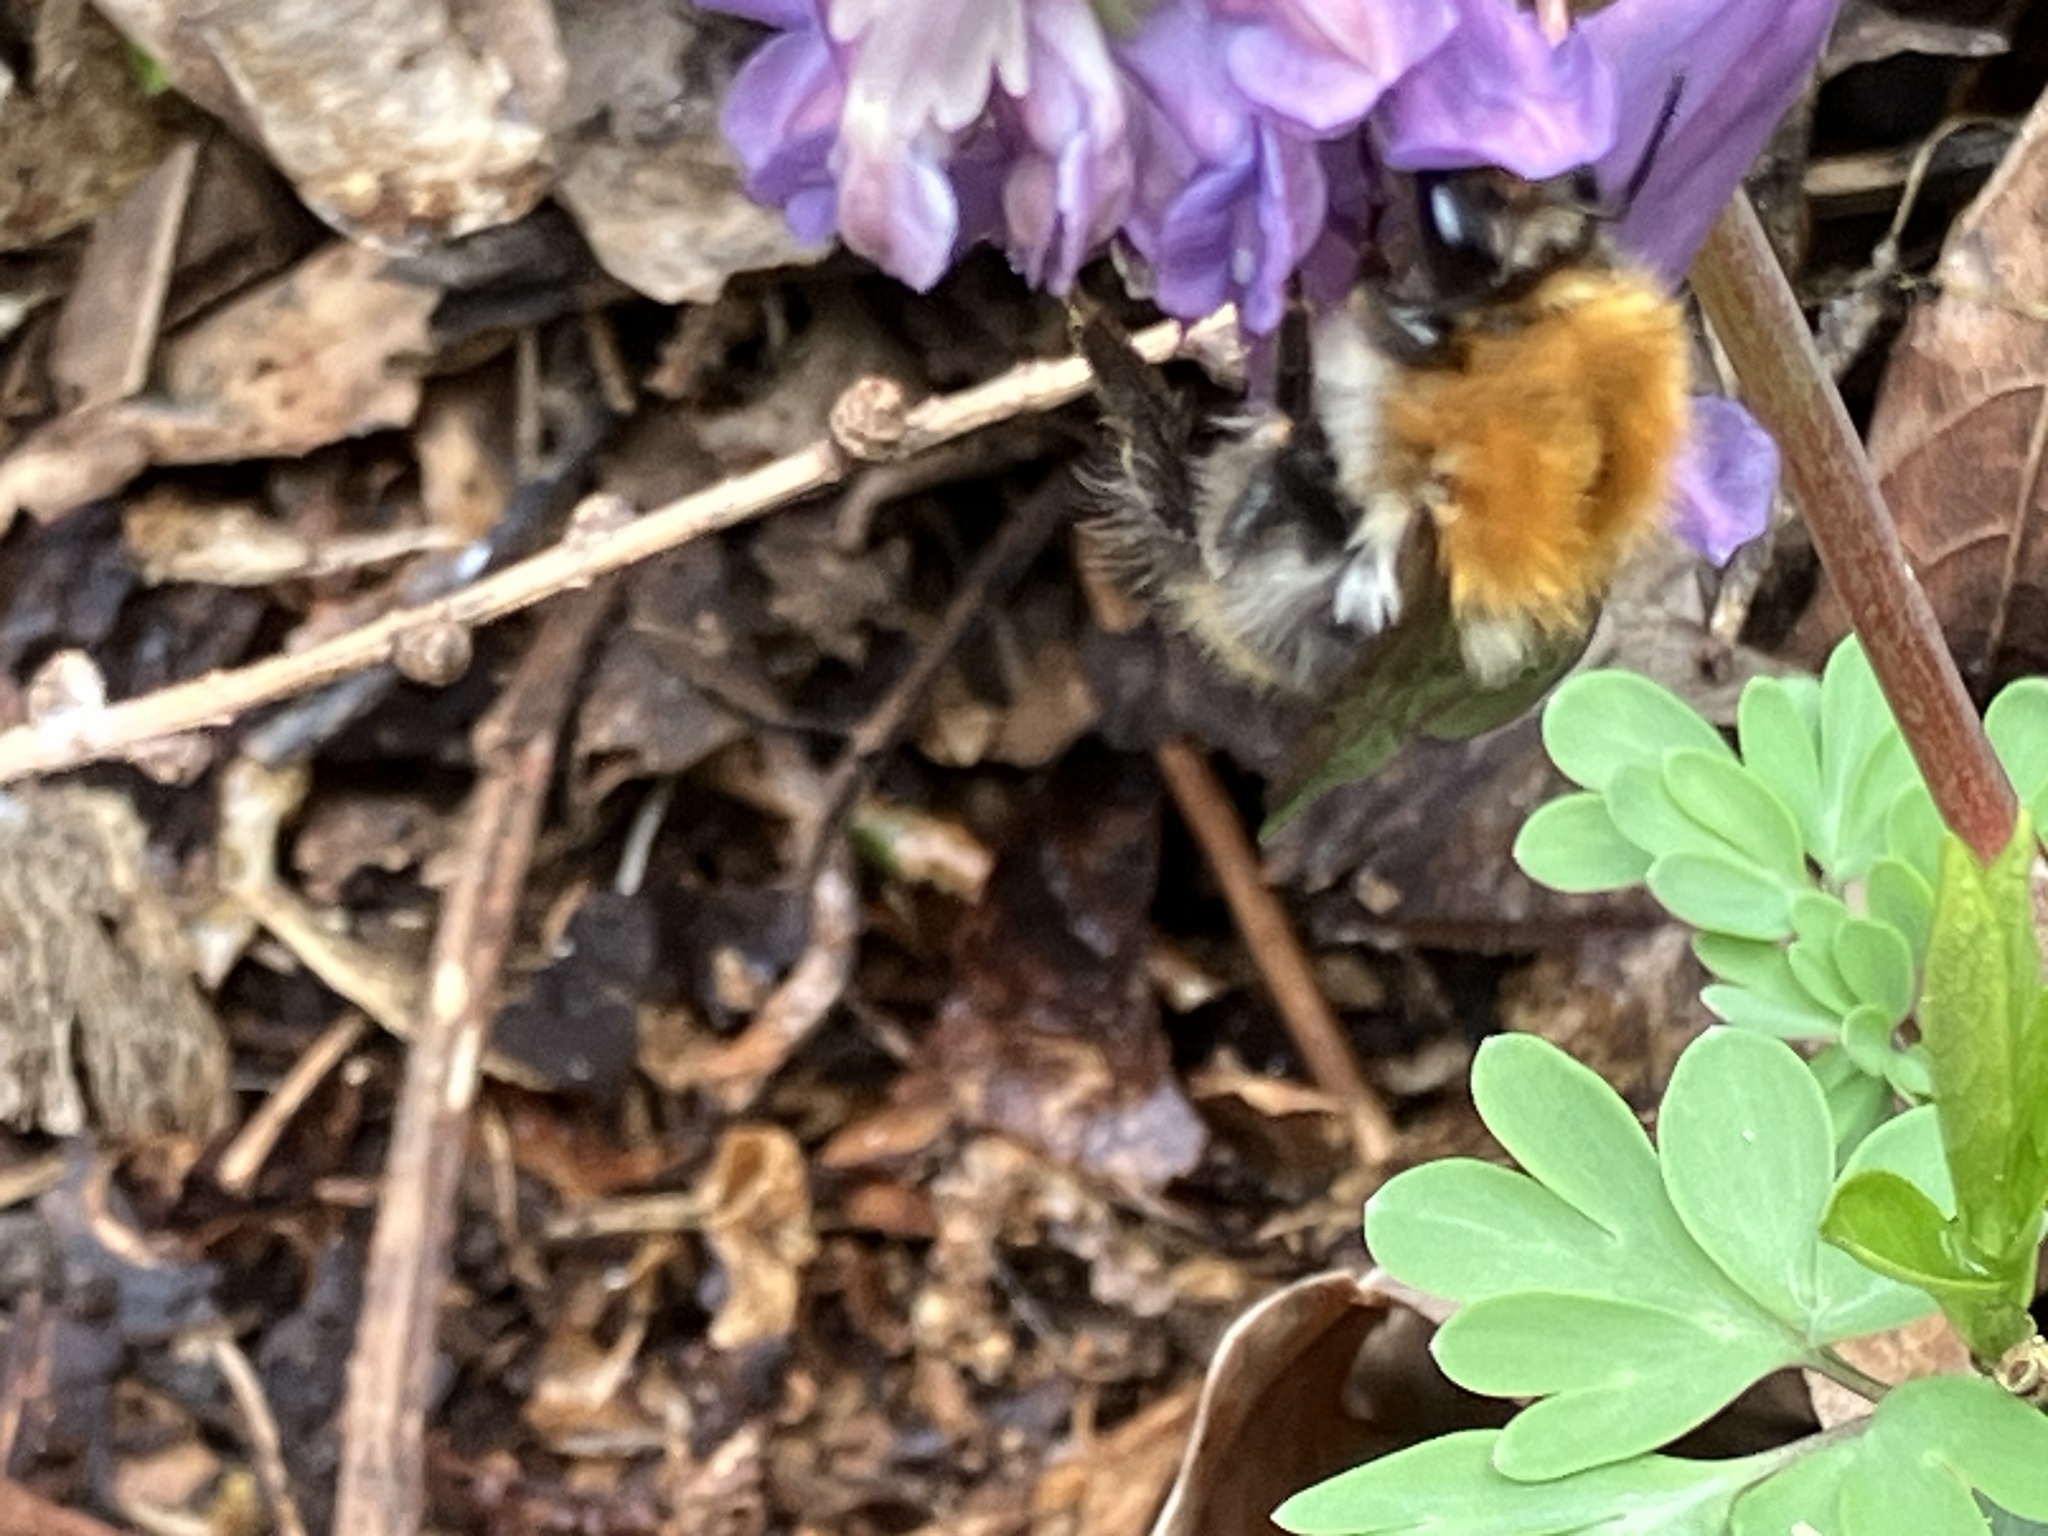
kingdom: Animalia
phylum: Arthropoda
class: Insecta
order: Hymenoptera
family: Apidae
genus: Bombus
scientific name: Bombus pascuorum
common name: Common carder bee
